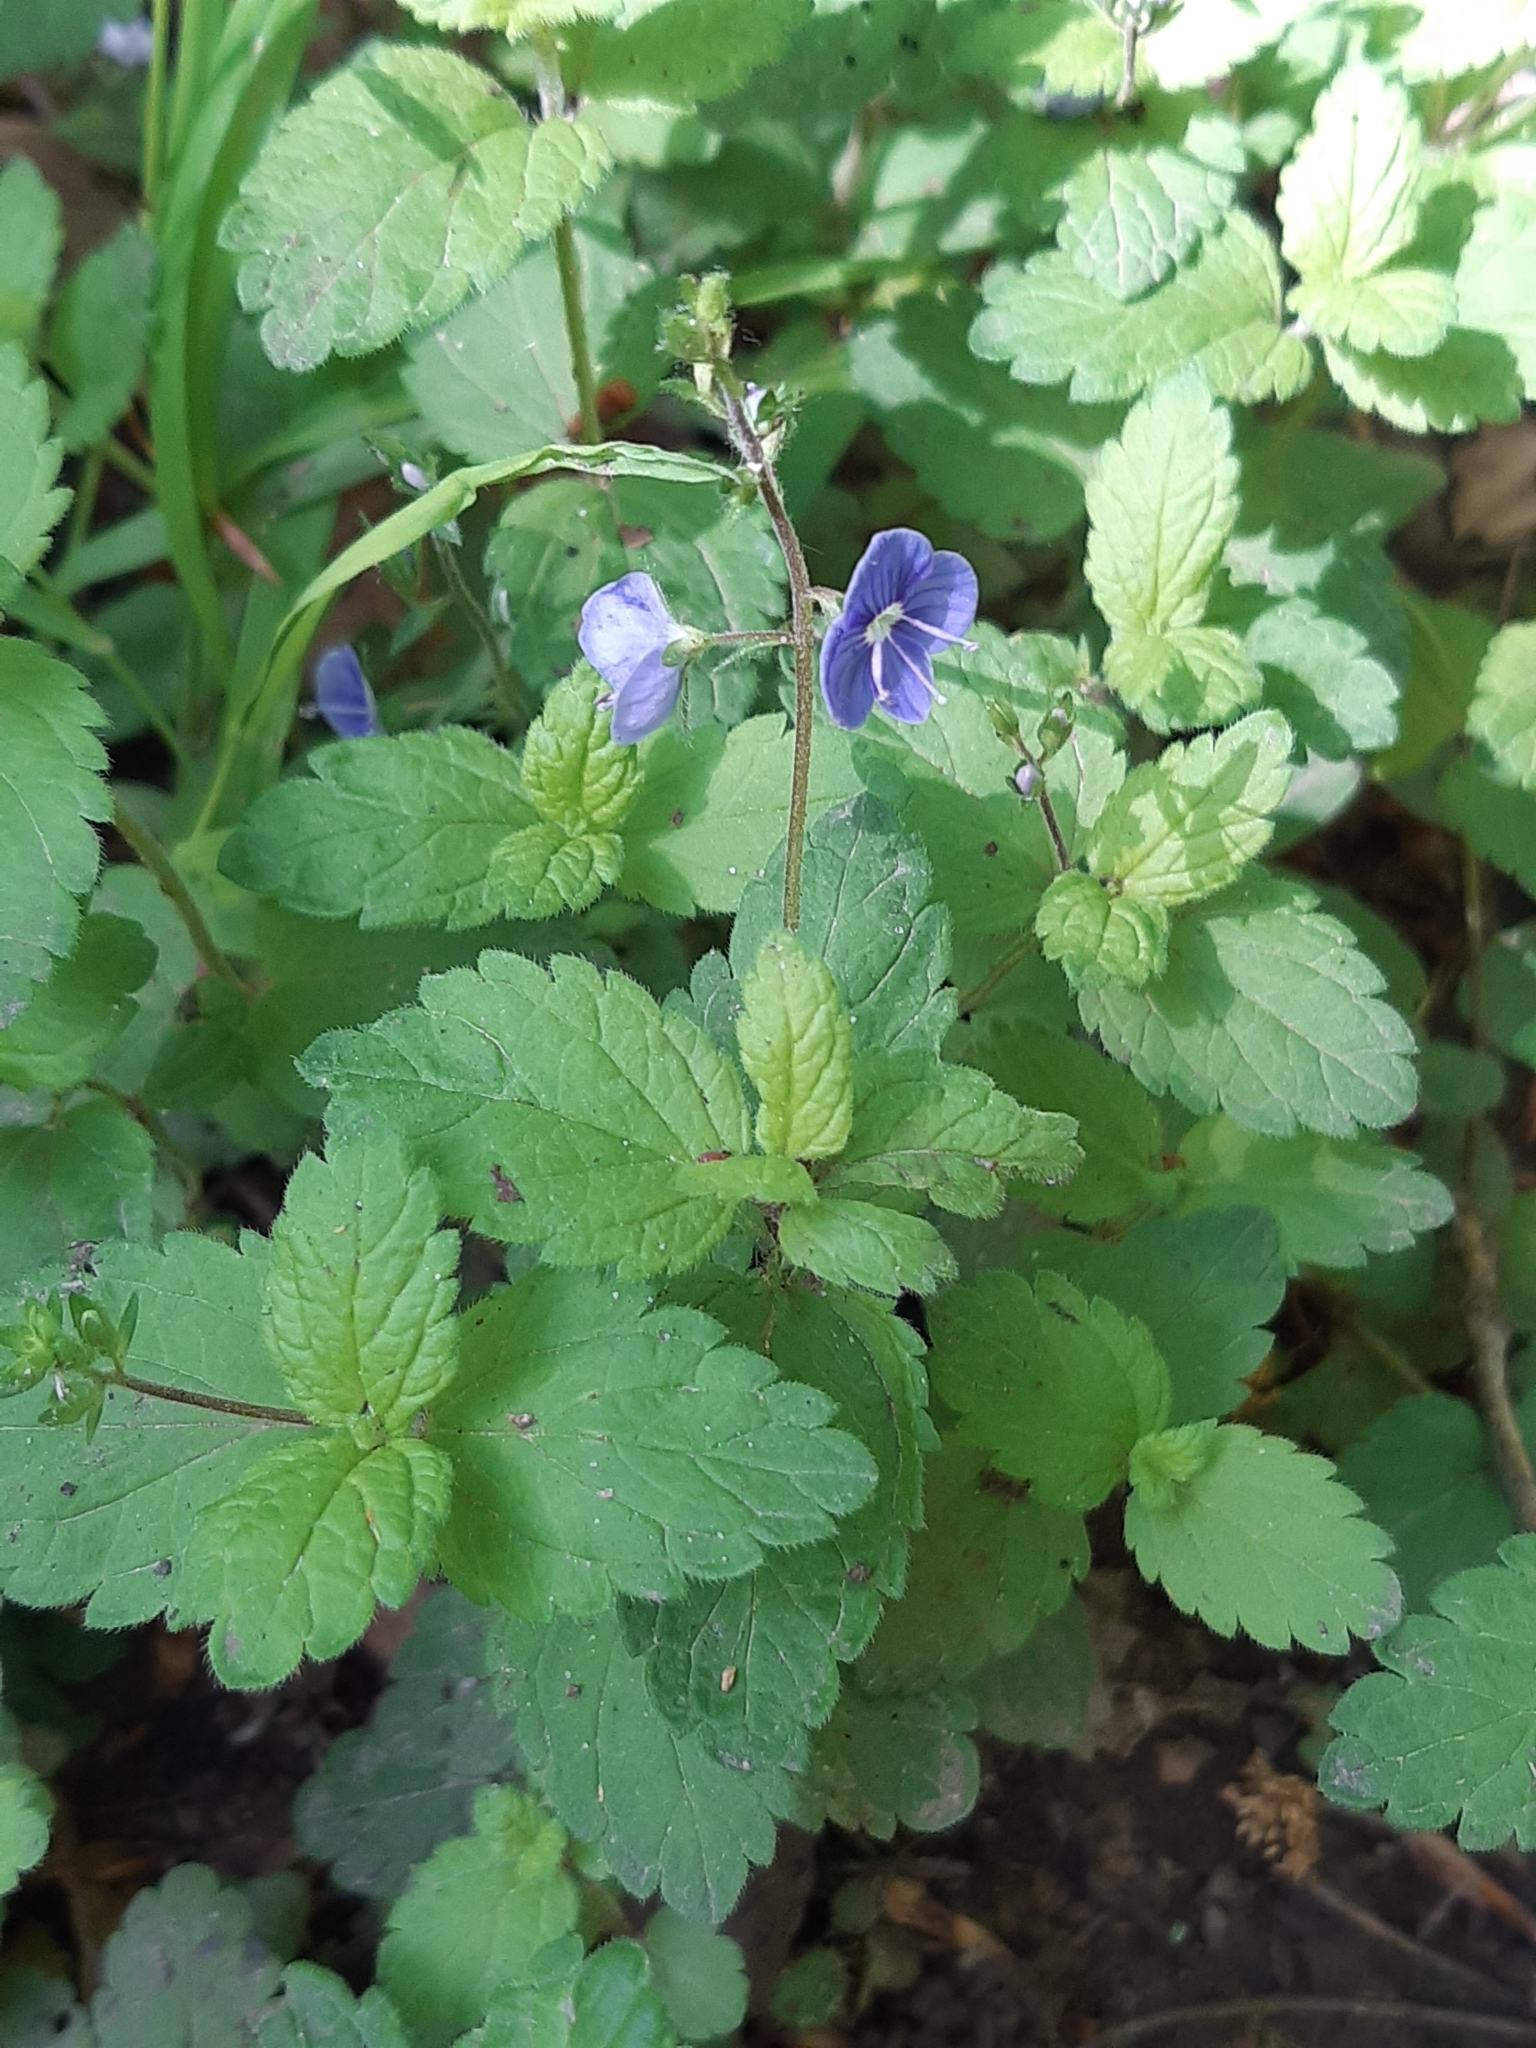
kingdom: Plantae
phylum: Tracheophyta
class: Magnoliopsida
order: Lamiales
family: Plantaginaceae
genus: Veronica
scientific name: Veronica chamaedrys
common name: Germander speedwell
